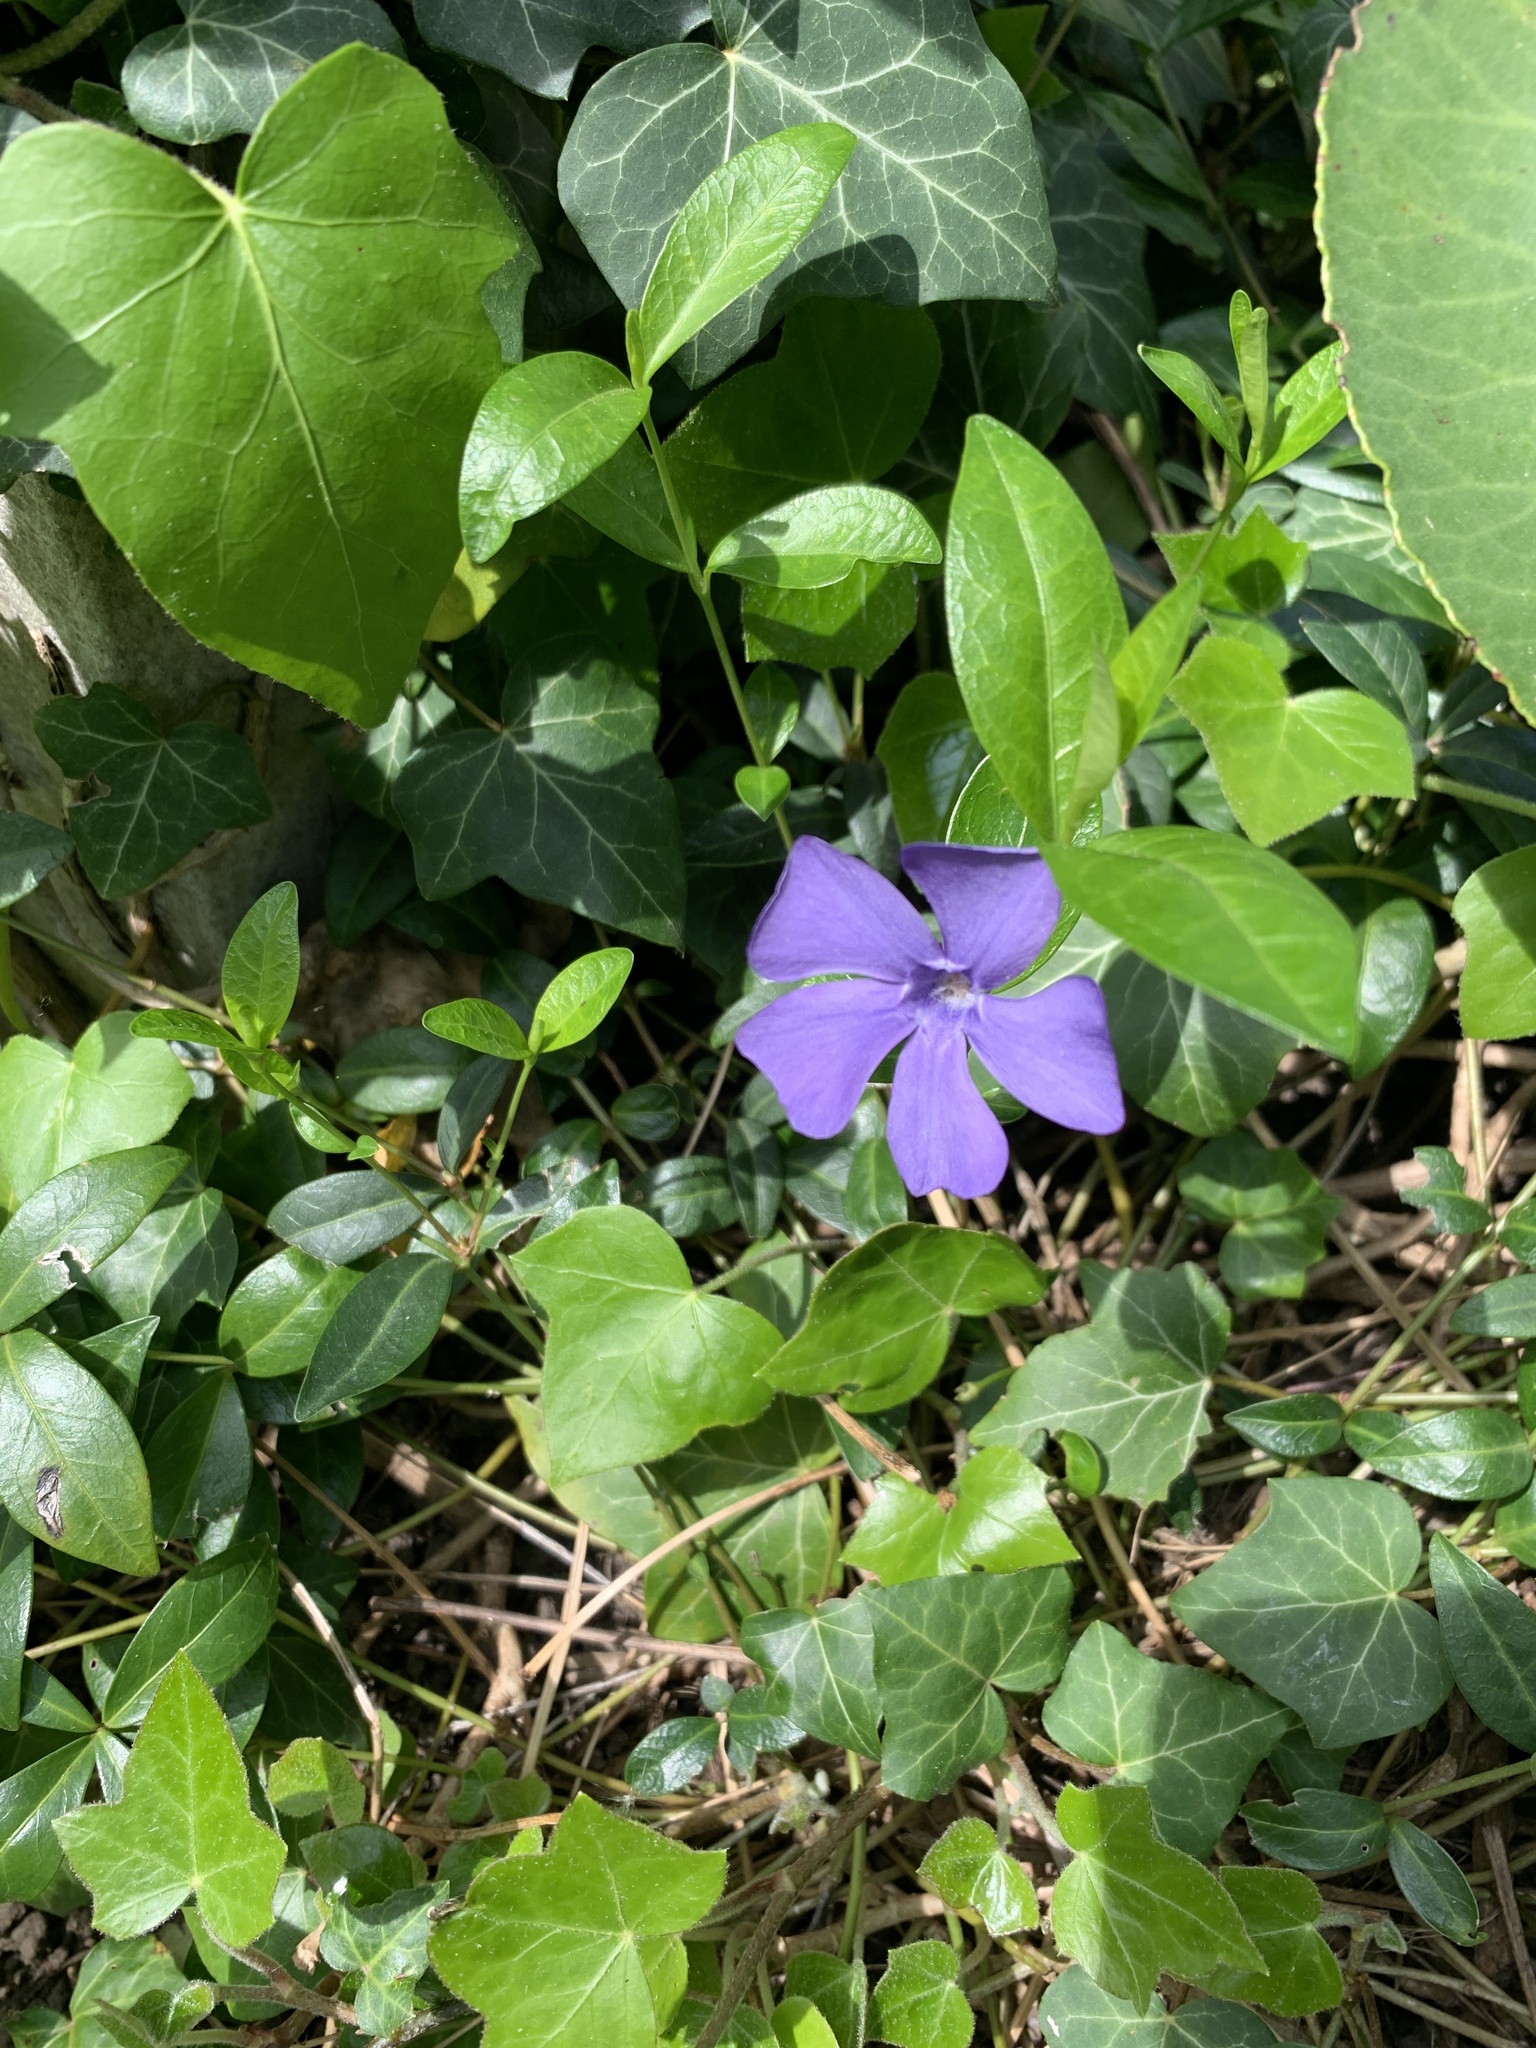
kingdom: Plantae
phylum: Tracheophyta
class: Magnoliopsida
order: Gentianales
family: Apocynaceae
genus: Vinca
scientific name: Vinca minor
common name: Lesser periwinkle
